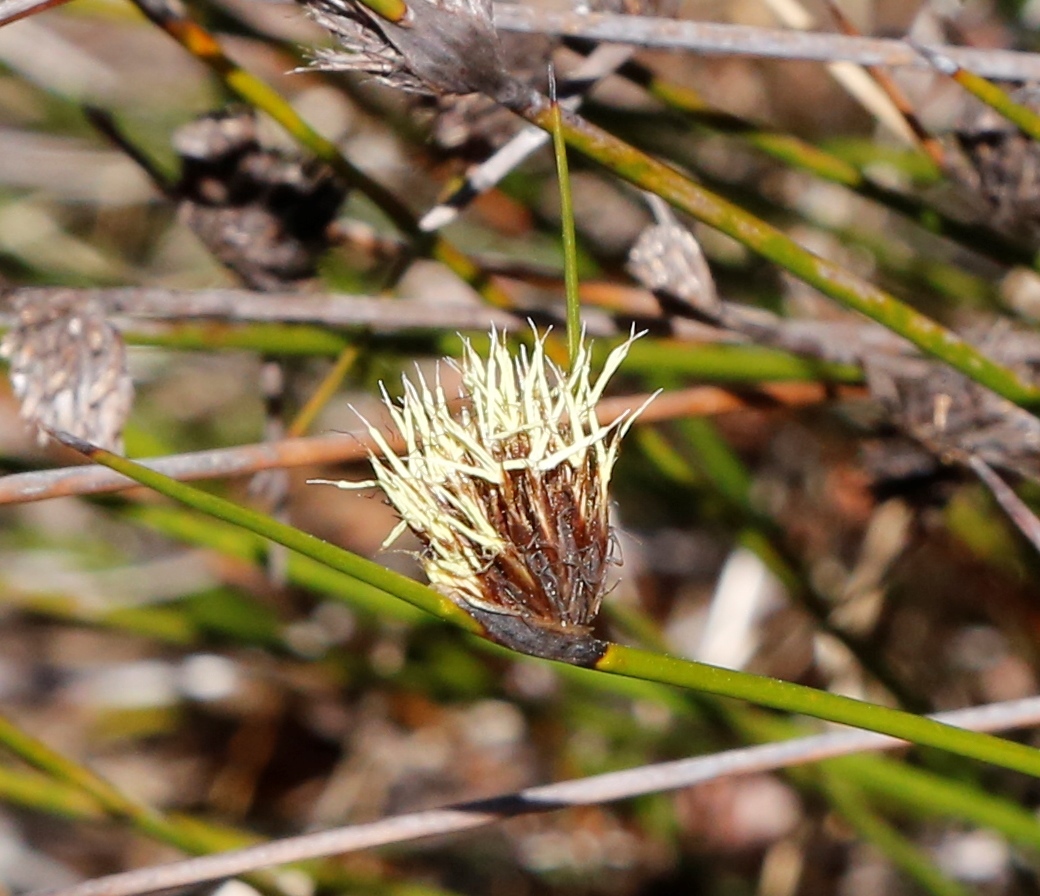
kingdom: Plantae
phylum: Tracheophyta
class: Liliopsida
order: Poales
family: Cyperaceae
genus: Mesomelaena
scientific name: Mesomelaena pseudostygia
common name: Semaphore sedge
